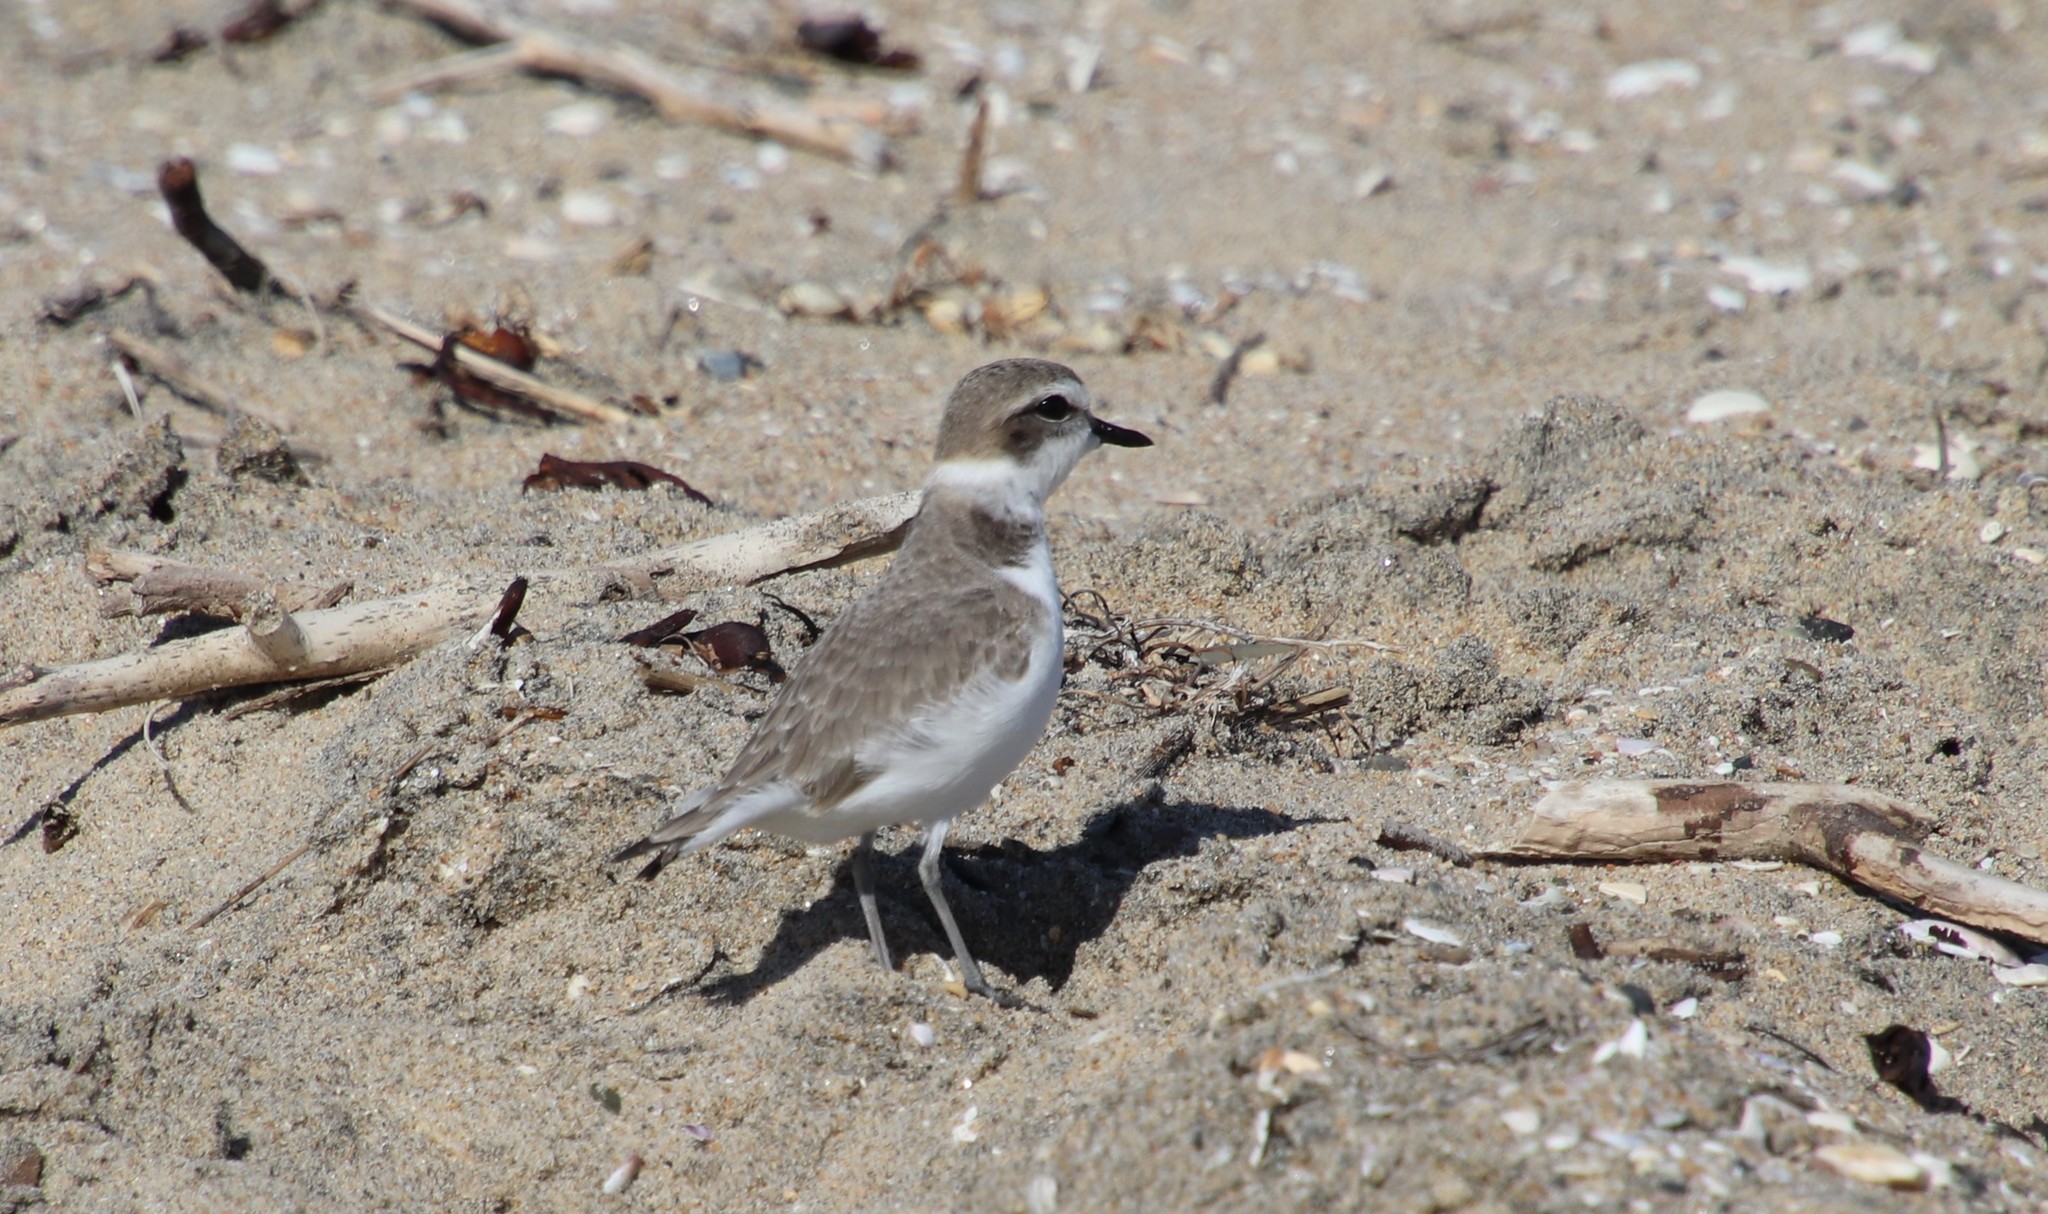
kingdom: Animalia
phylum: Chordata
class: Aves
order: Charadriiformes
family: Charadriidae
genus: Anarhynchus
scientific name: Anarhynchus
